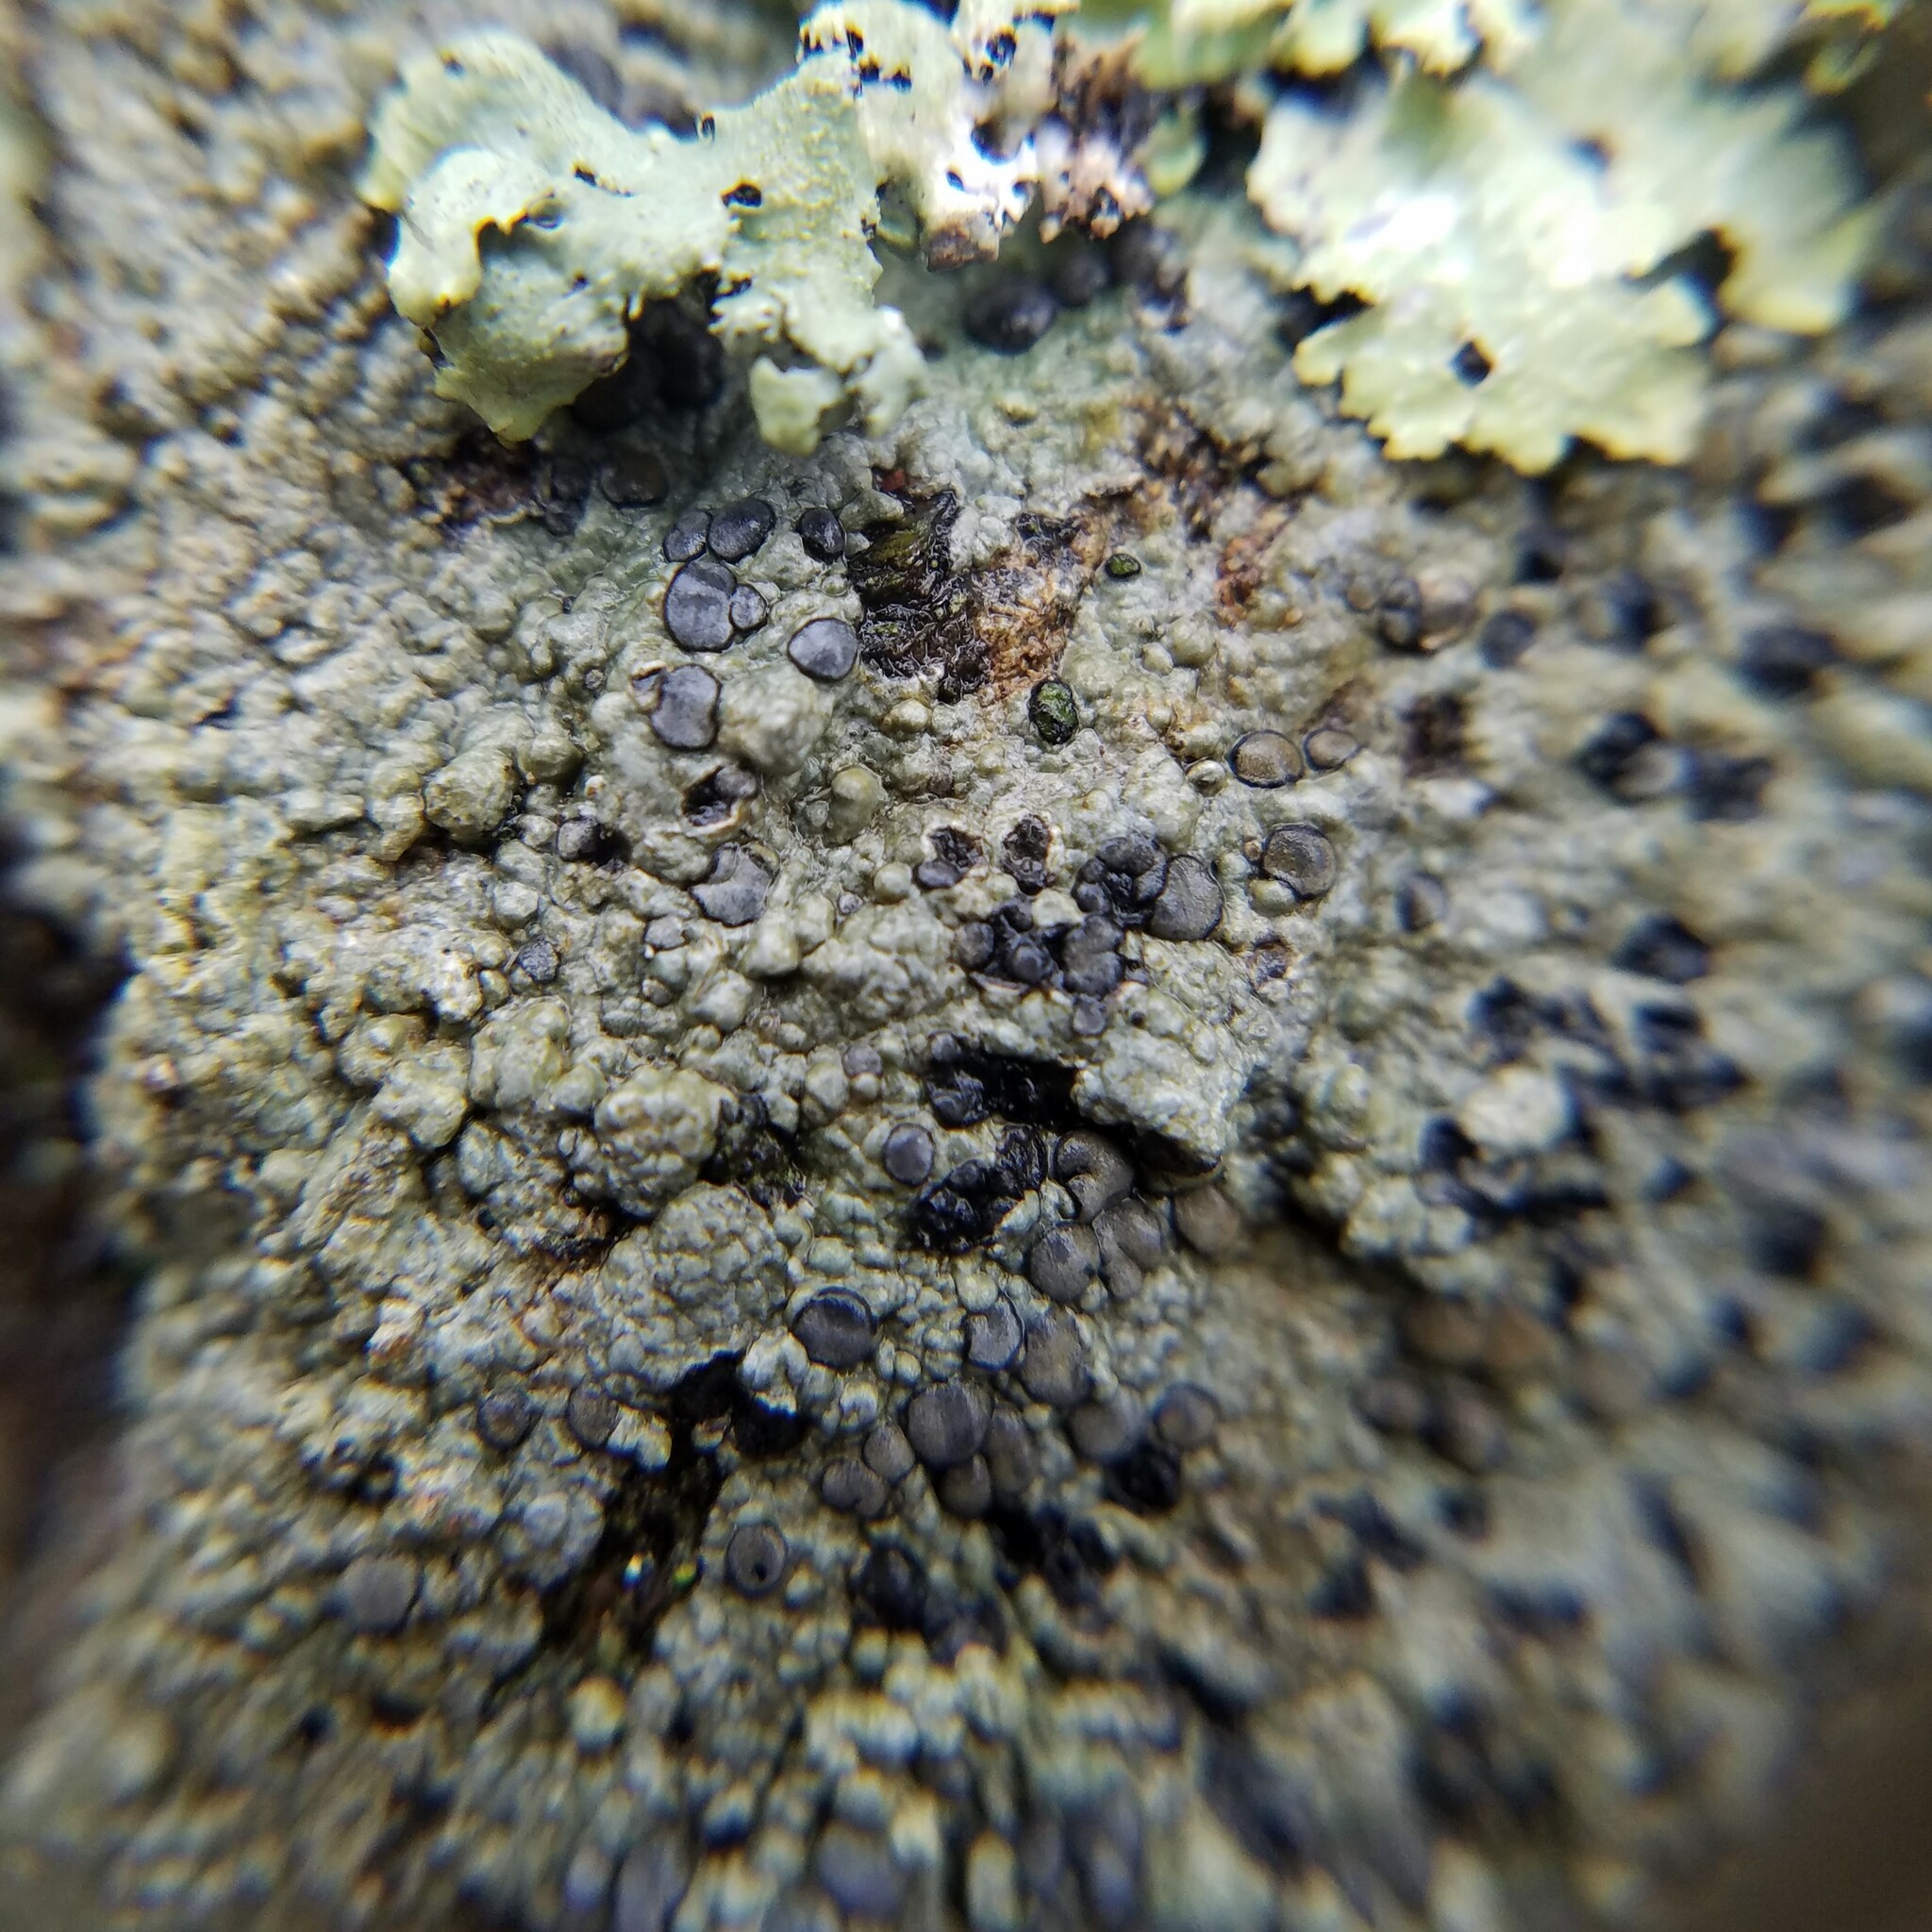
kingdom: Fungi
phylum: Ascomycota
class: Lecanoromycetes
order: Lecideales
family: Lecideaceae
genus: Porpidia
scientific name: Porpidia albocaerulescens
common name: Smokey-eyed boulder lichen
